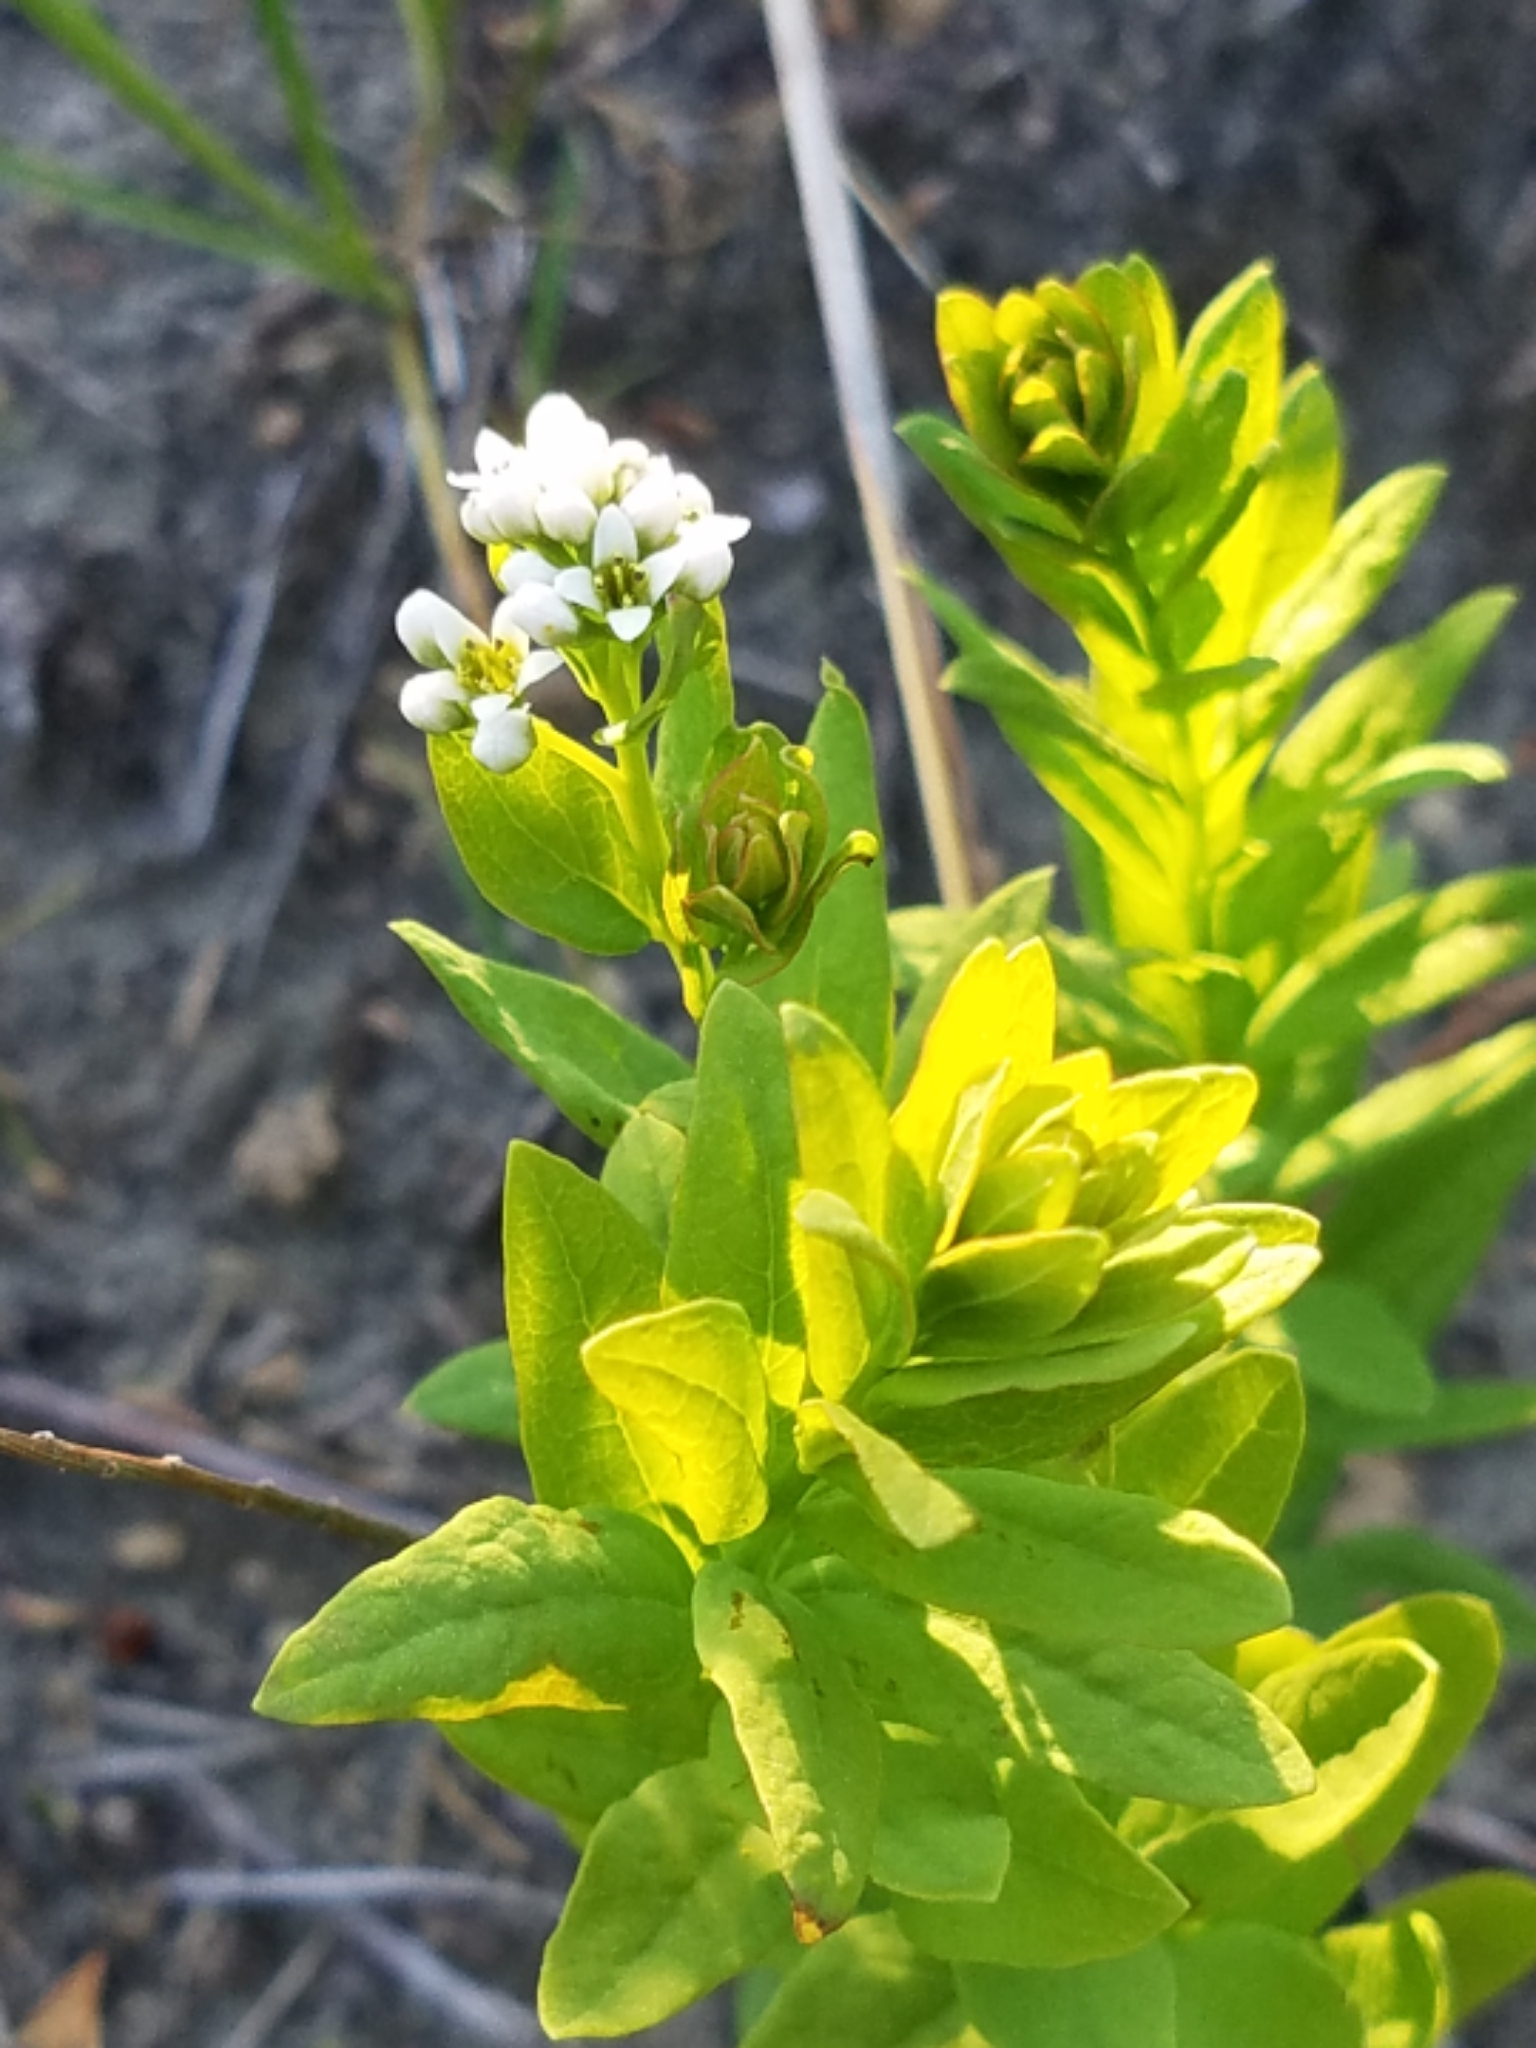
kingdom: Plantae
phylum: Tracheophyta
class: Magnoliopsida
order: Santalales
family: Comandraceae
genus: Comandra
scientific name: Comandra umbellata
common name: Bastard toadflax
